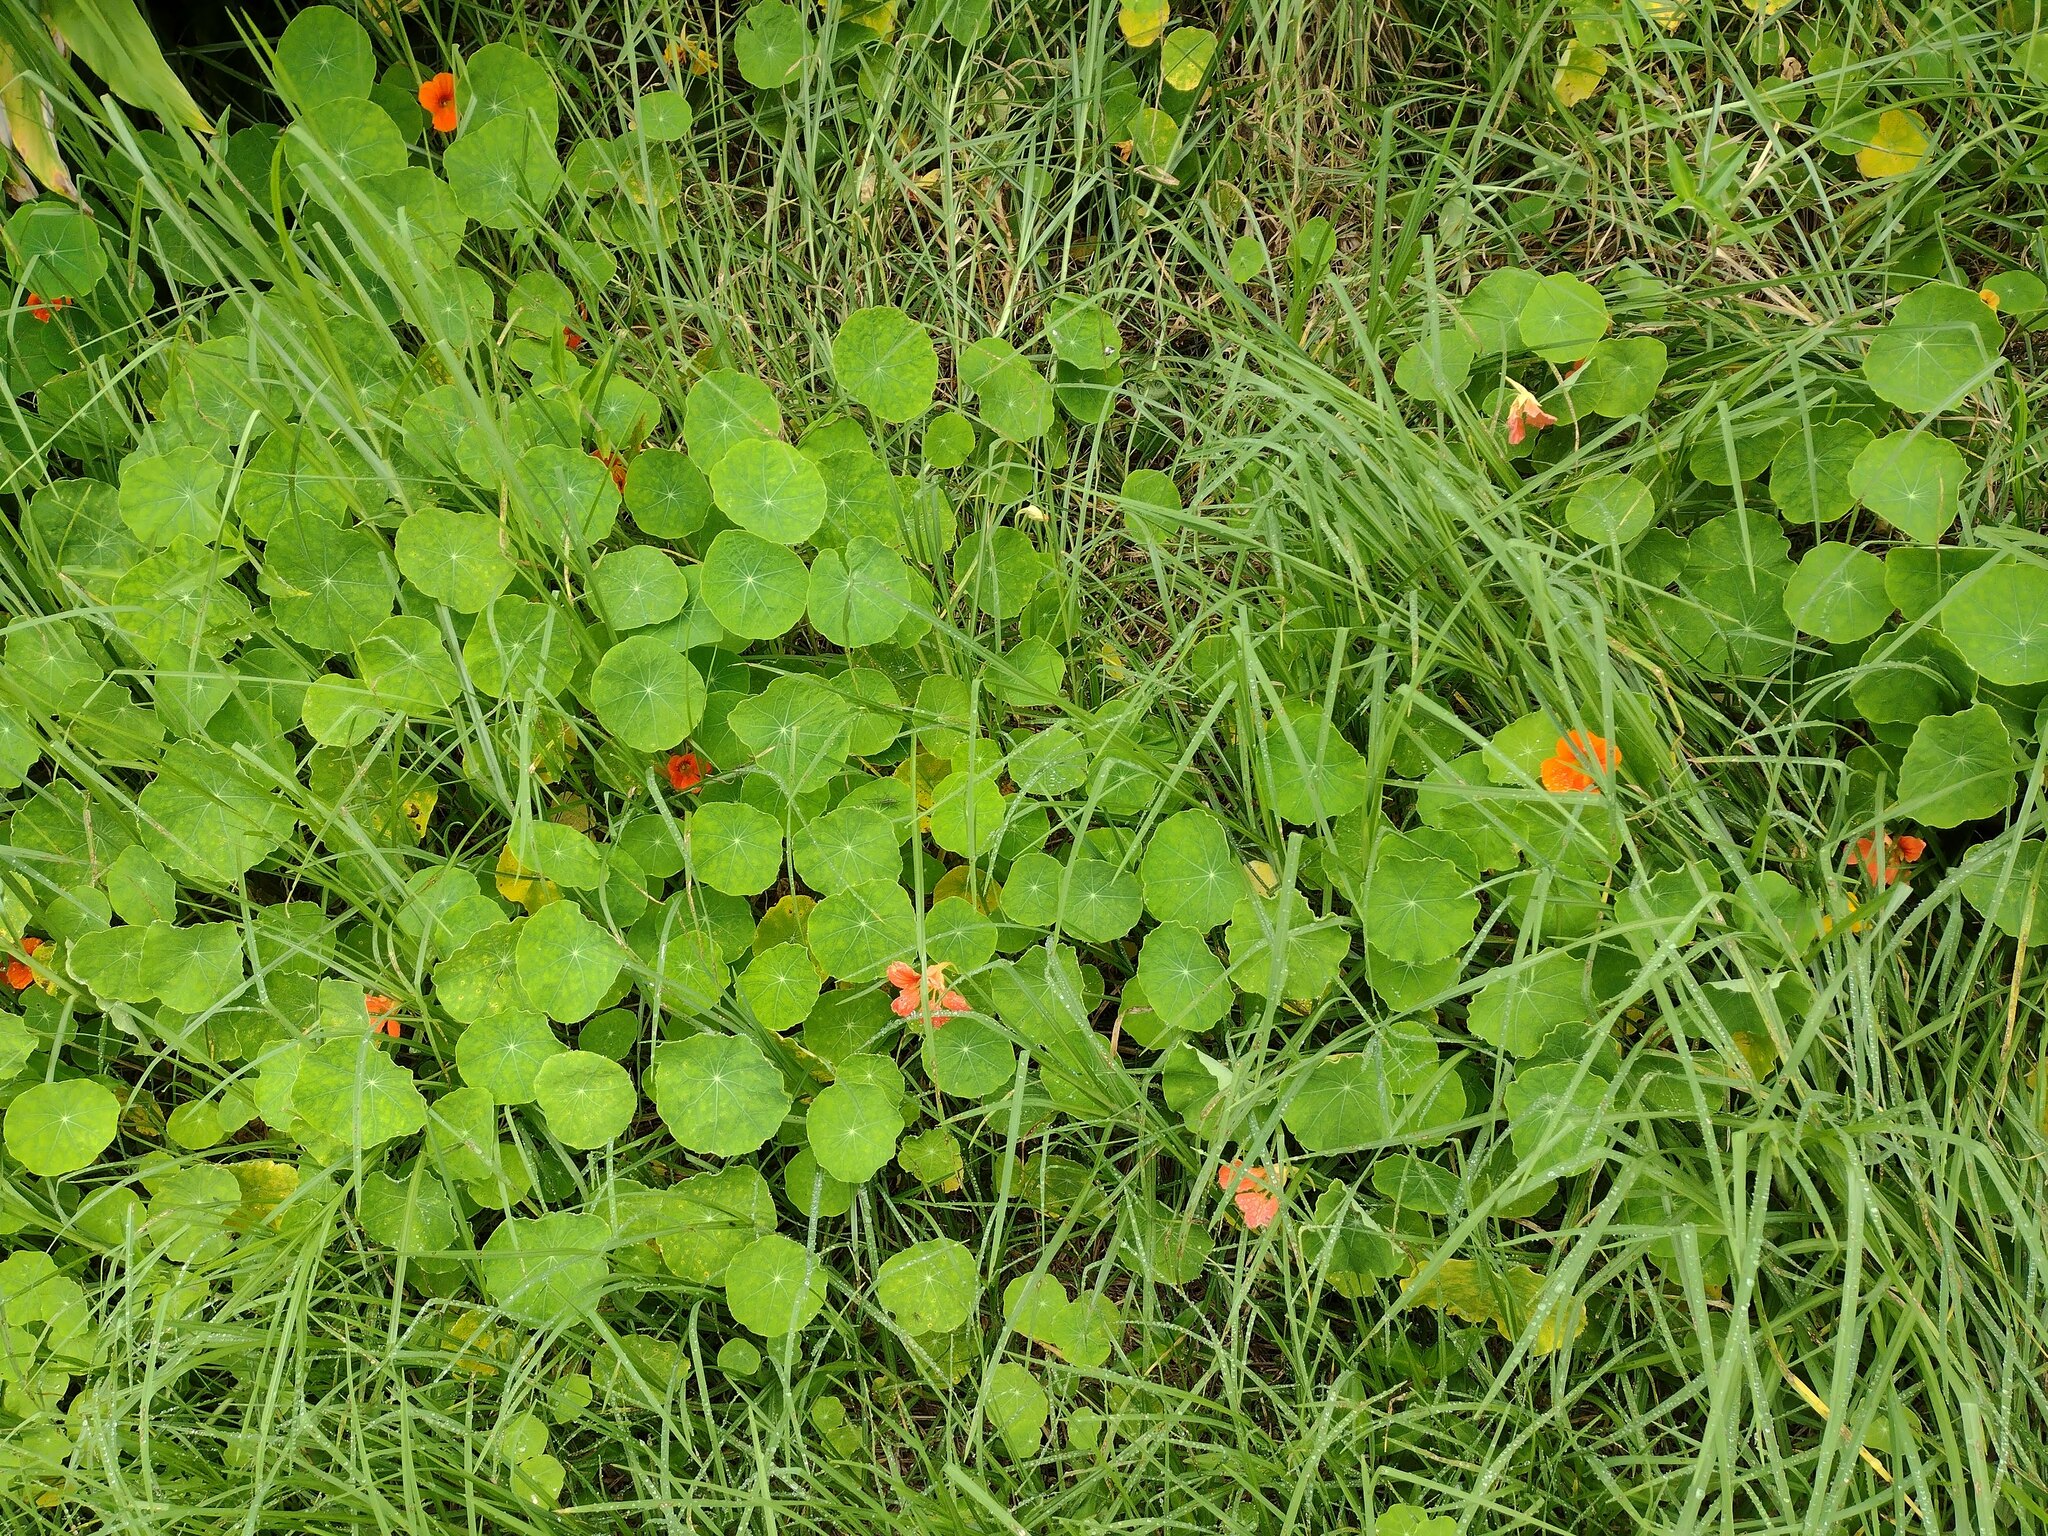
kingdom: Plantae
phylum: Tracheophyta
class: Magnoliopsida
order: Brassicales
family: Tropaeolaceae
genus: Tropaeolum
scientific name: Tropaeolum majus
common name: Nasturtium
